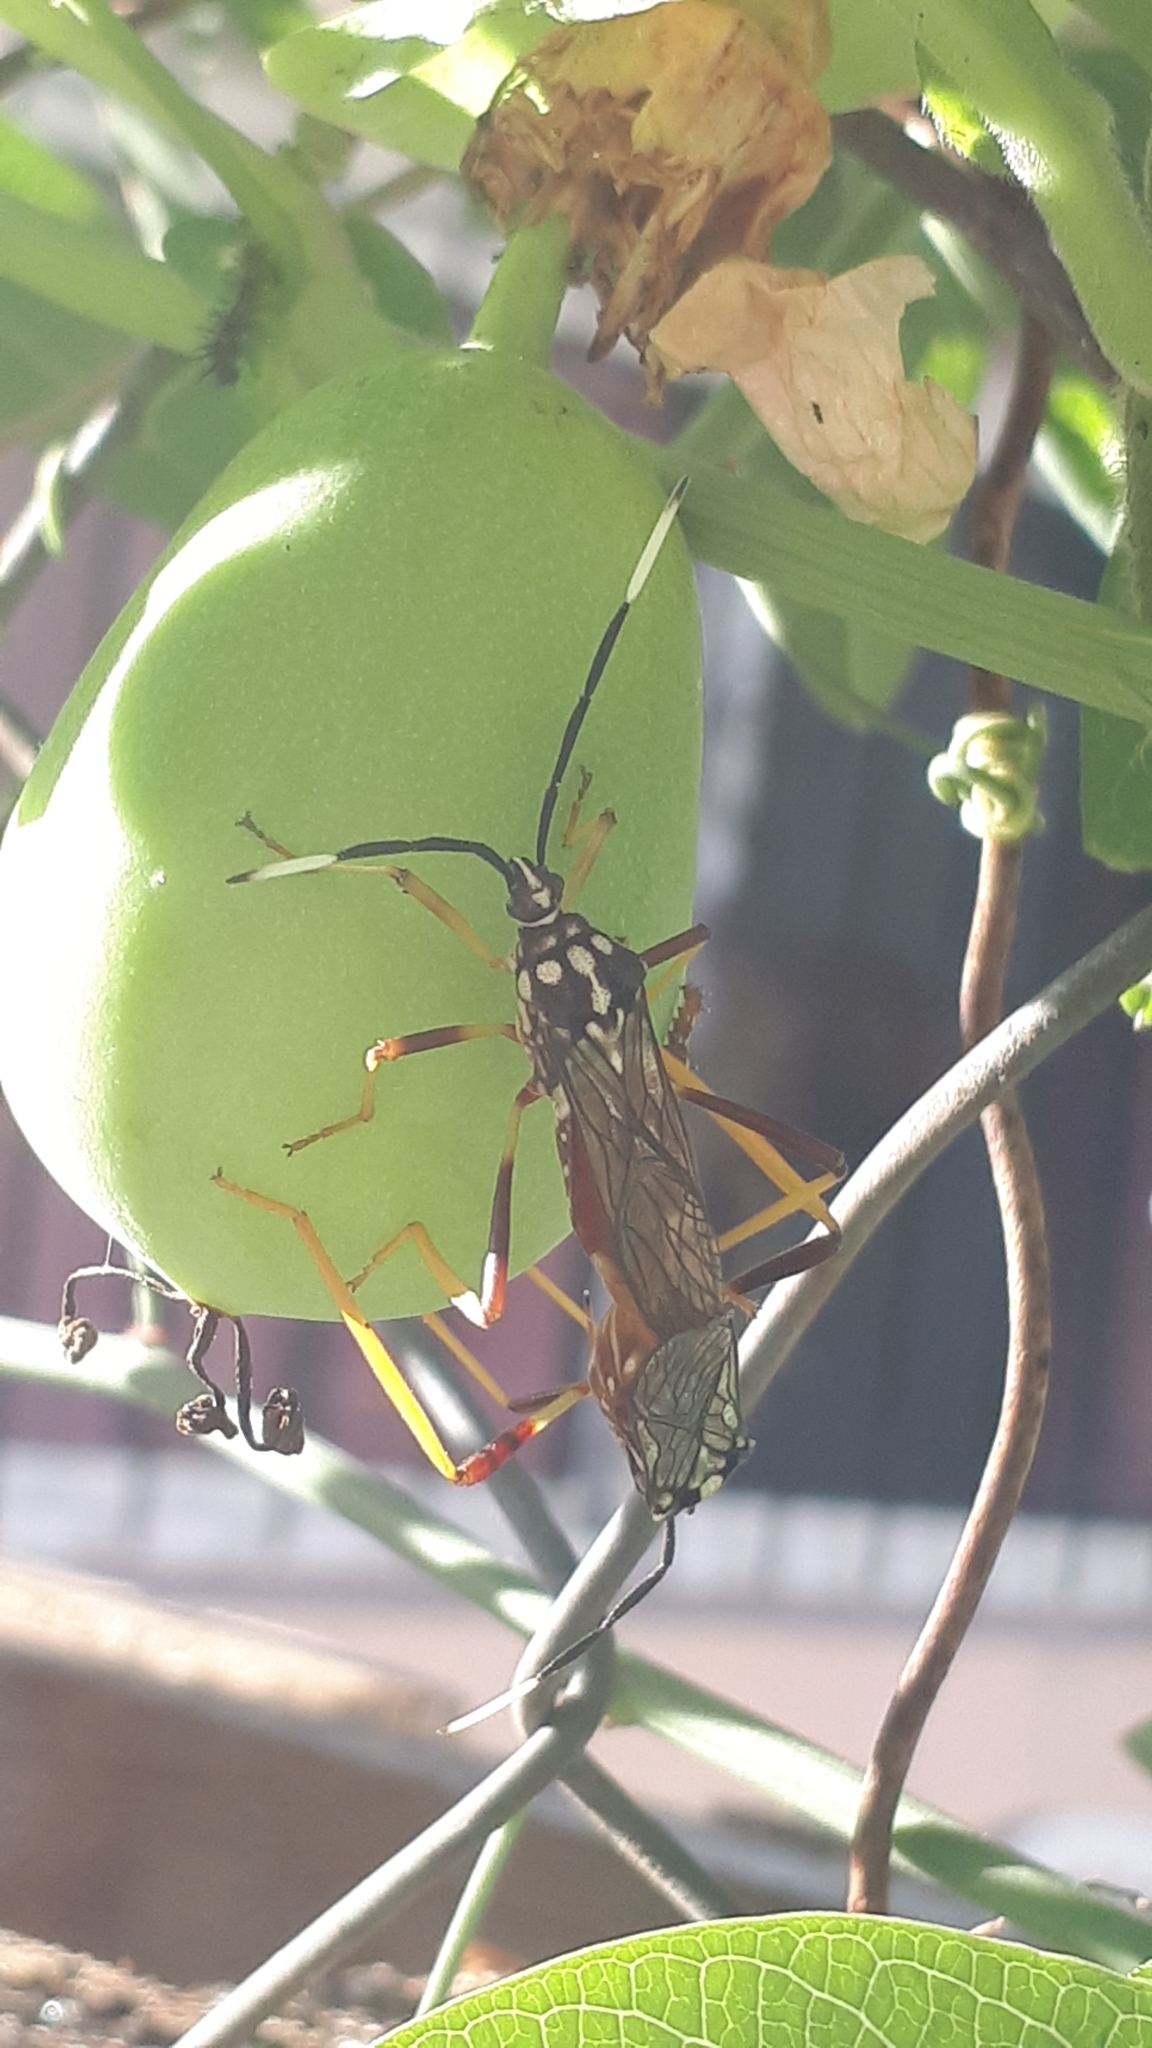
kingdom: Animalia
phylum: Arthropoda
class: Insecta
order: Hemiptera
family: Coreidae
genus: Holhymenia
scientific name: Holhymenia histrio
